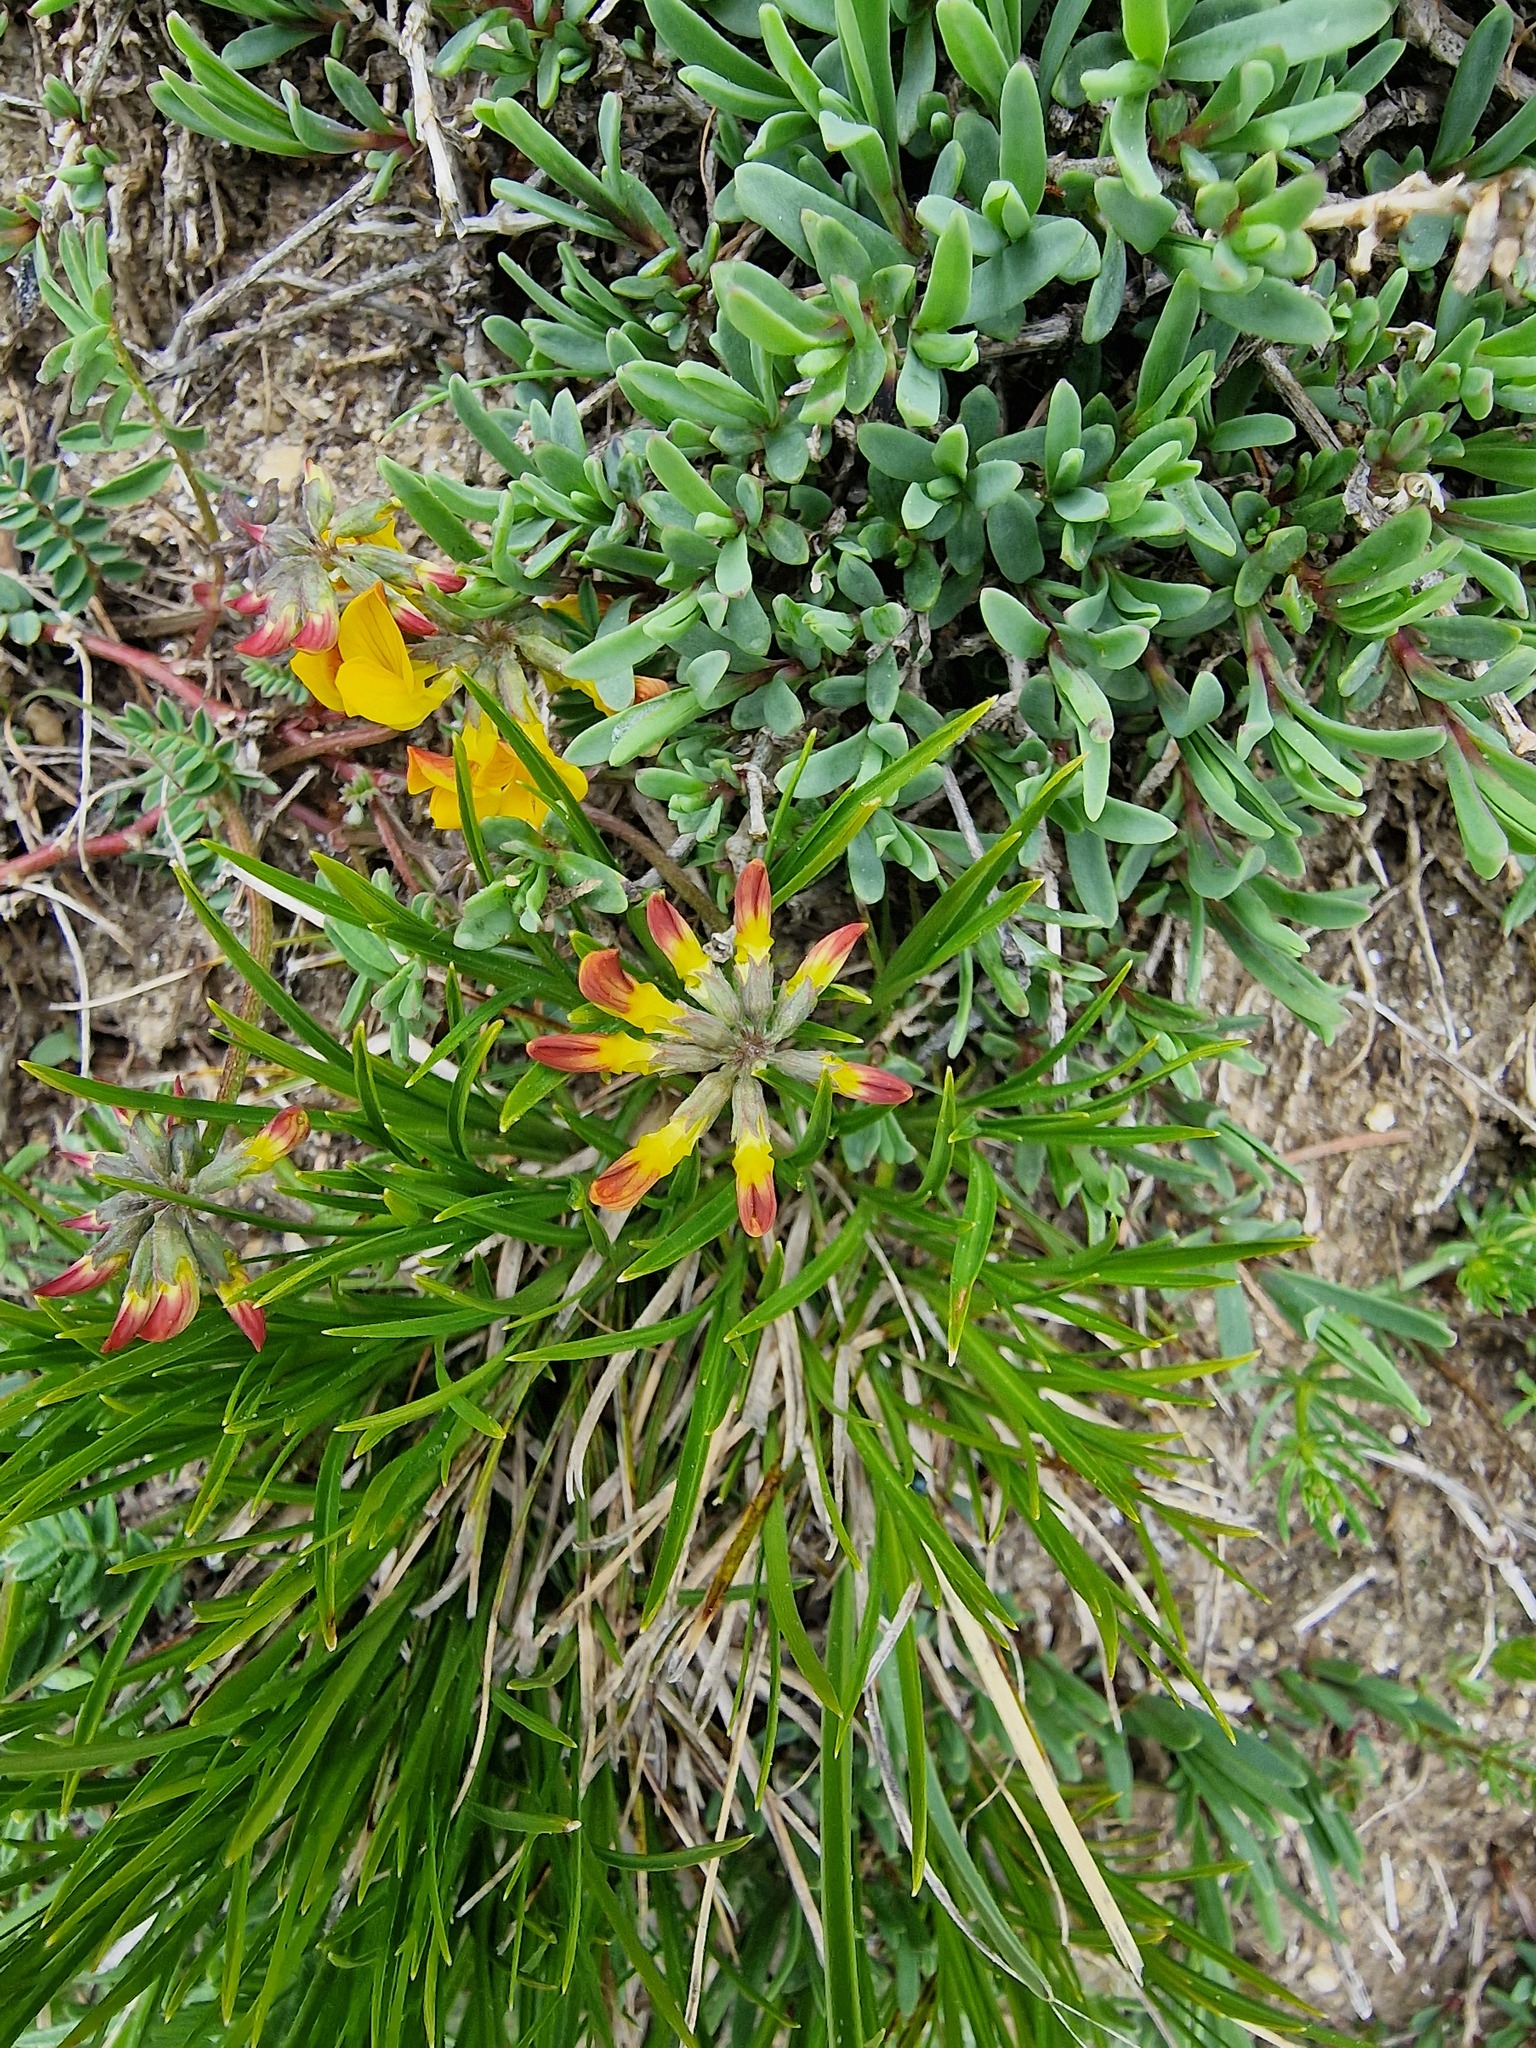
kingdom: Plantae
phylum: Tracheophyta
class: Magnoliopsida
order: Fabales
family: Fabaceae
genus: Hippocrepis
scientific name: Hippocrepis comosa
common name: Horseshoe vetch
